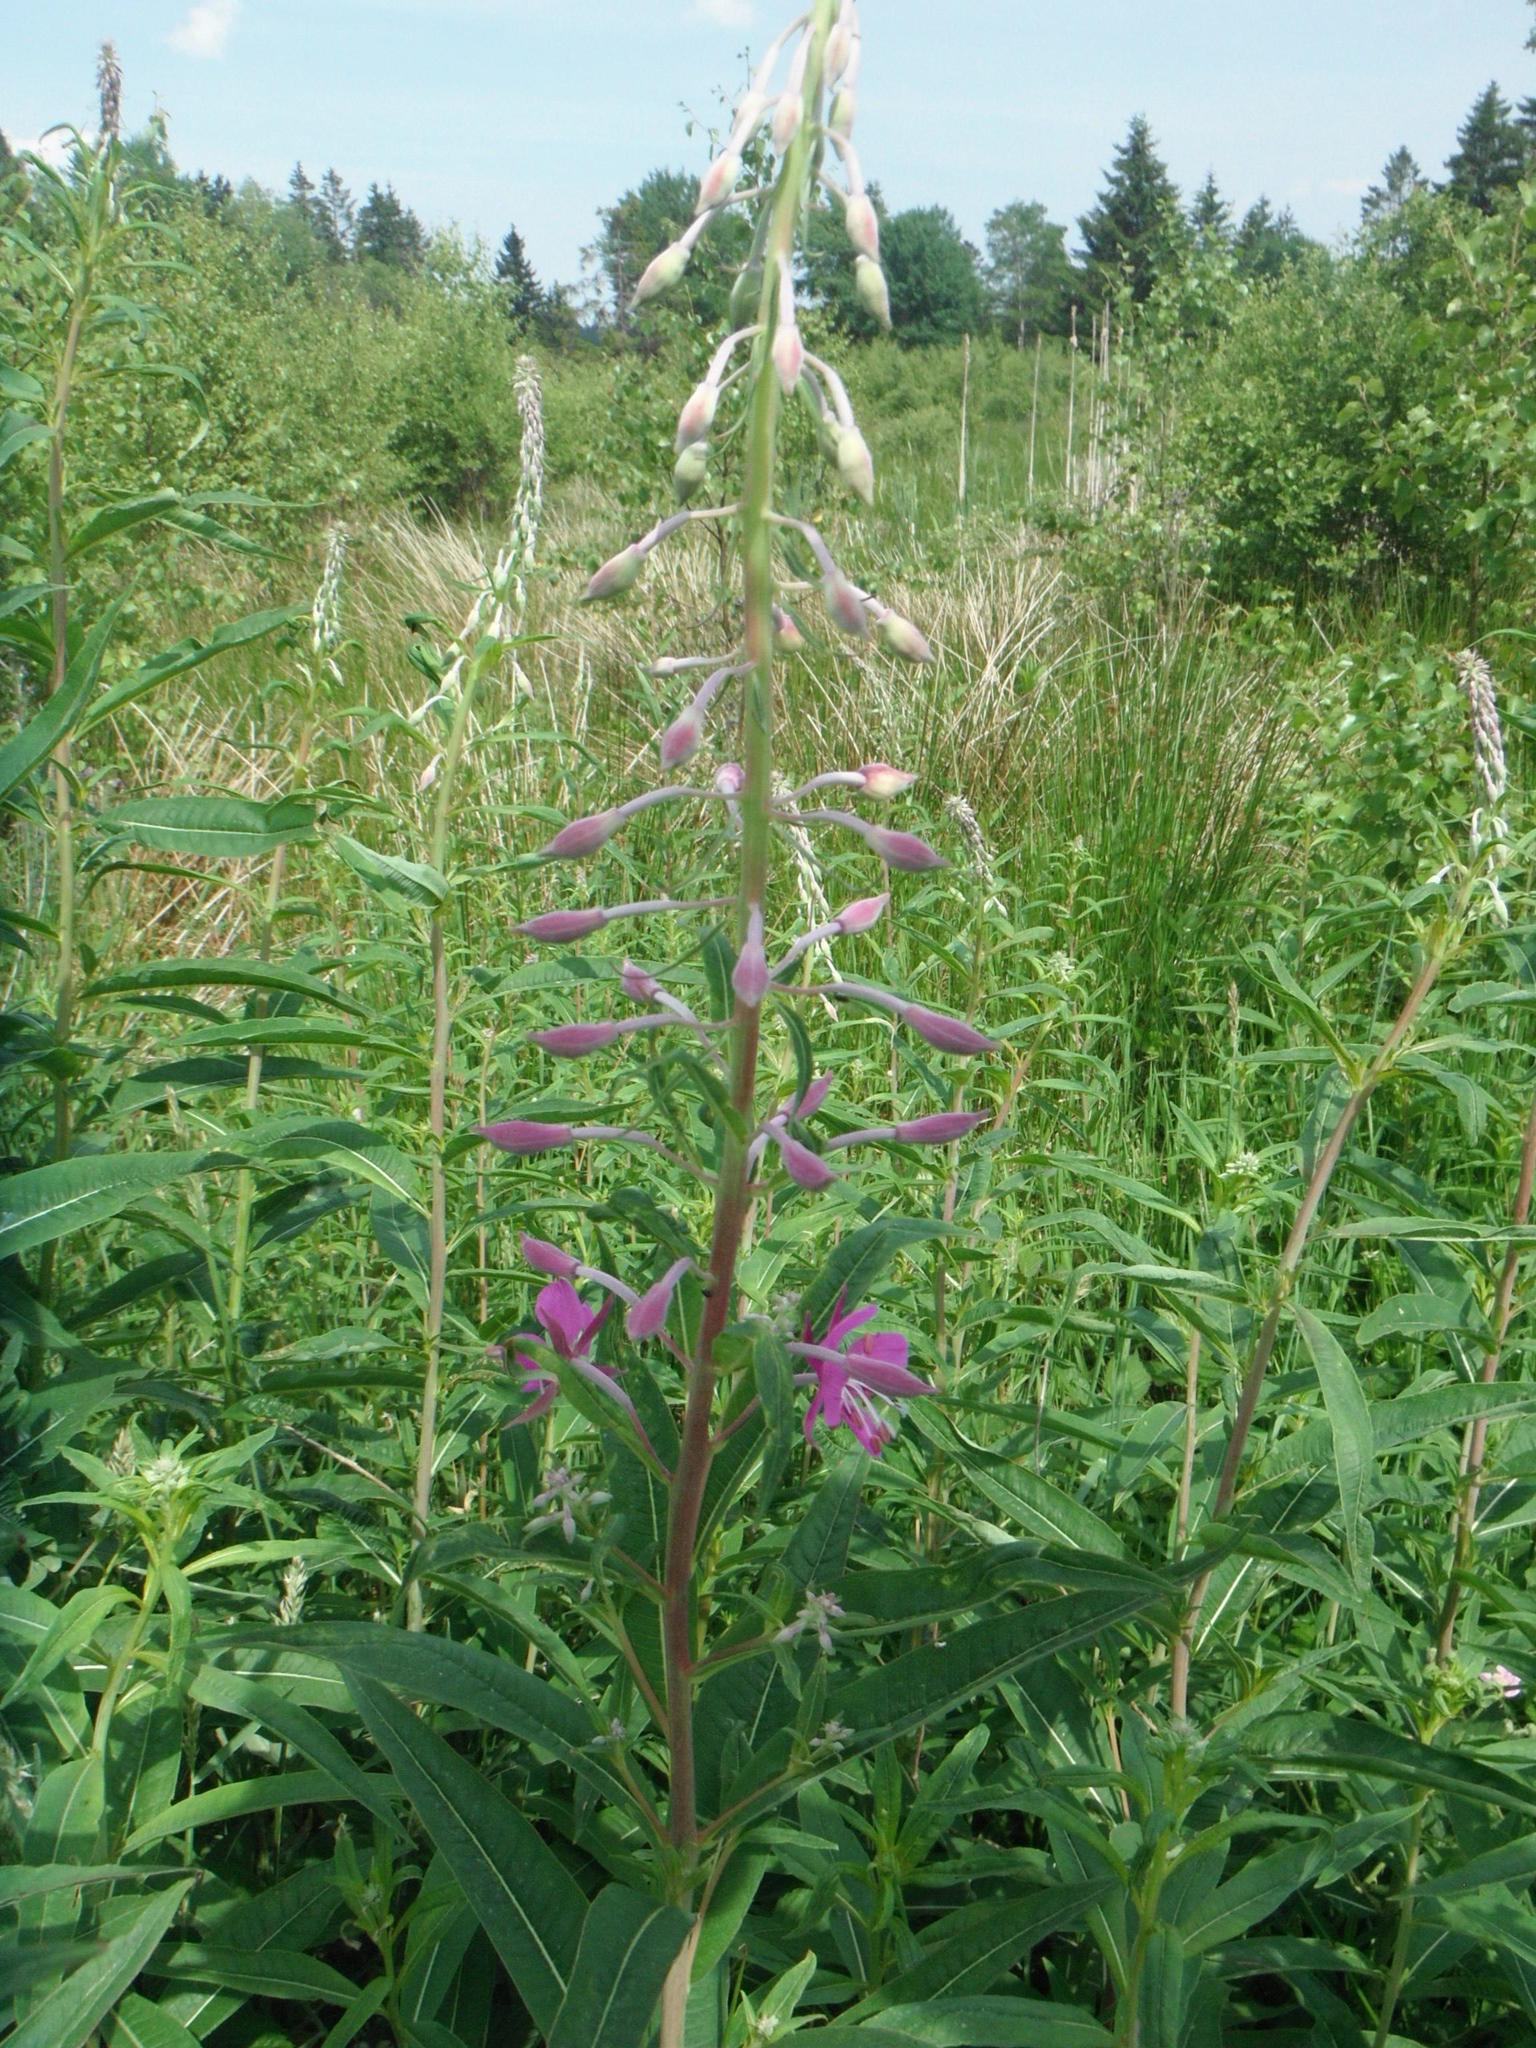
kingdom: Plantae
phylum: Tracheophyta
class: Magnoliopsida
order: Myrtales
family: Onagraceae
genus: Chamaenerion
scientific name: Chamaenerion angustifolium
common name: Fireweed
